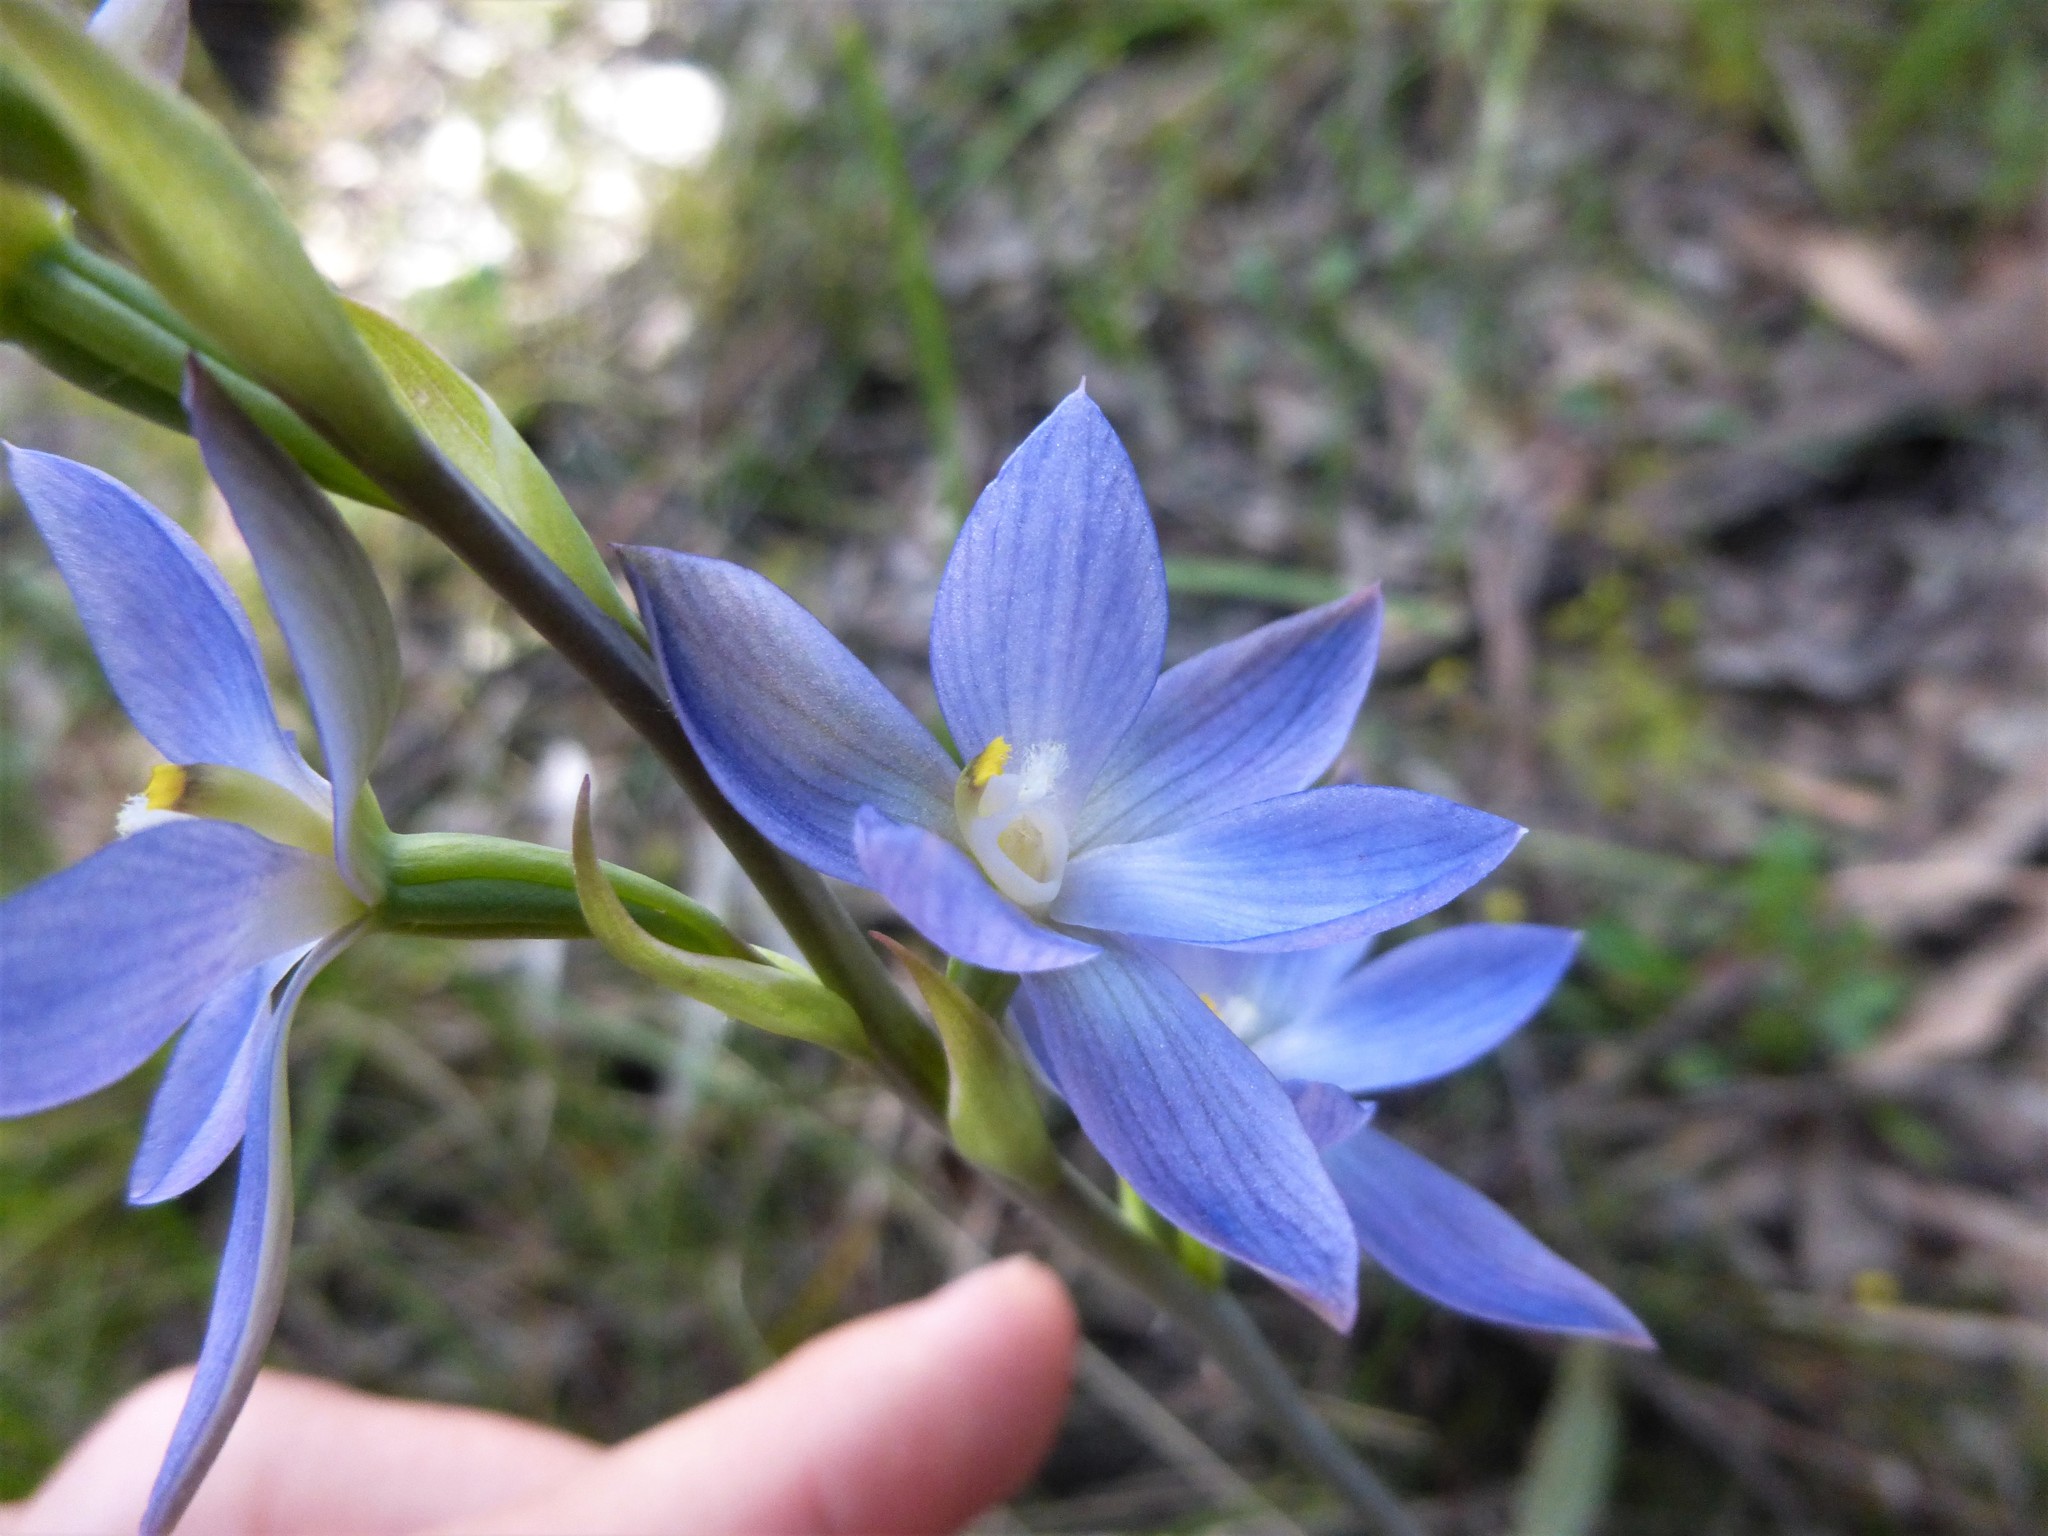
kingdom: Plantae
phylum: Tracheophyta
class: Liliopsida
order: Asparagales
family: Orchidaceae
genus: Thelymitra
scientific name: Thelymitra aristata
